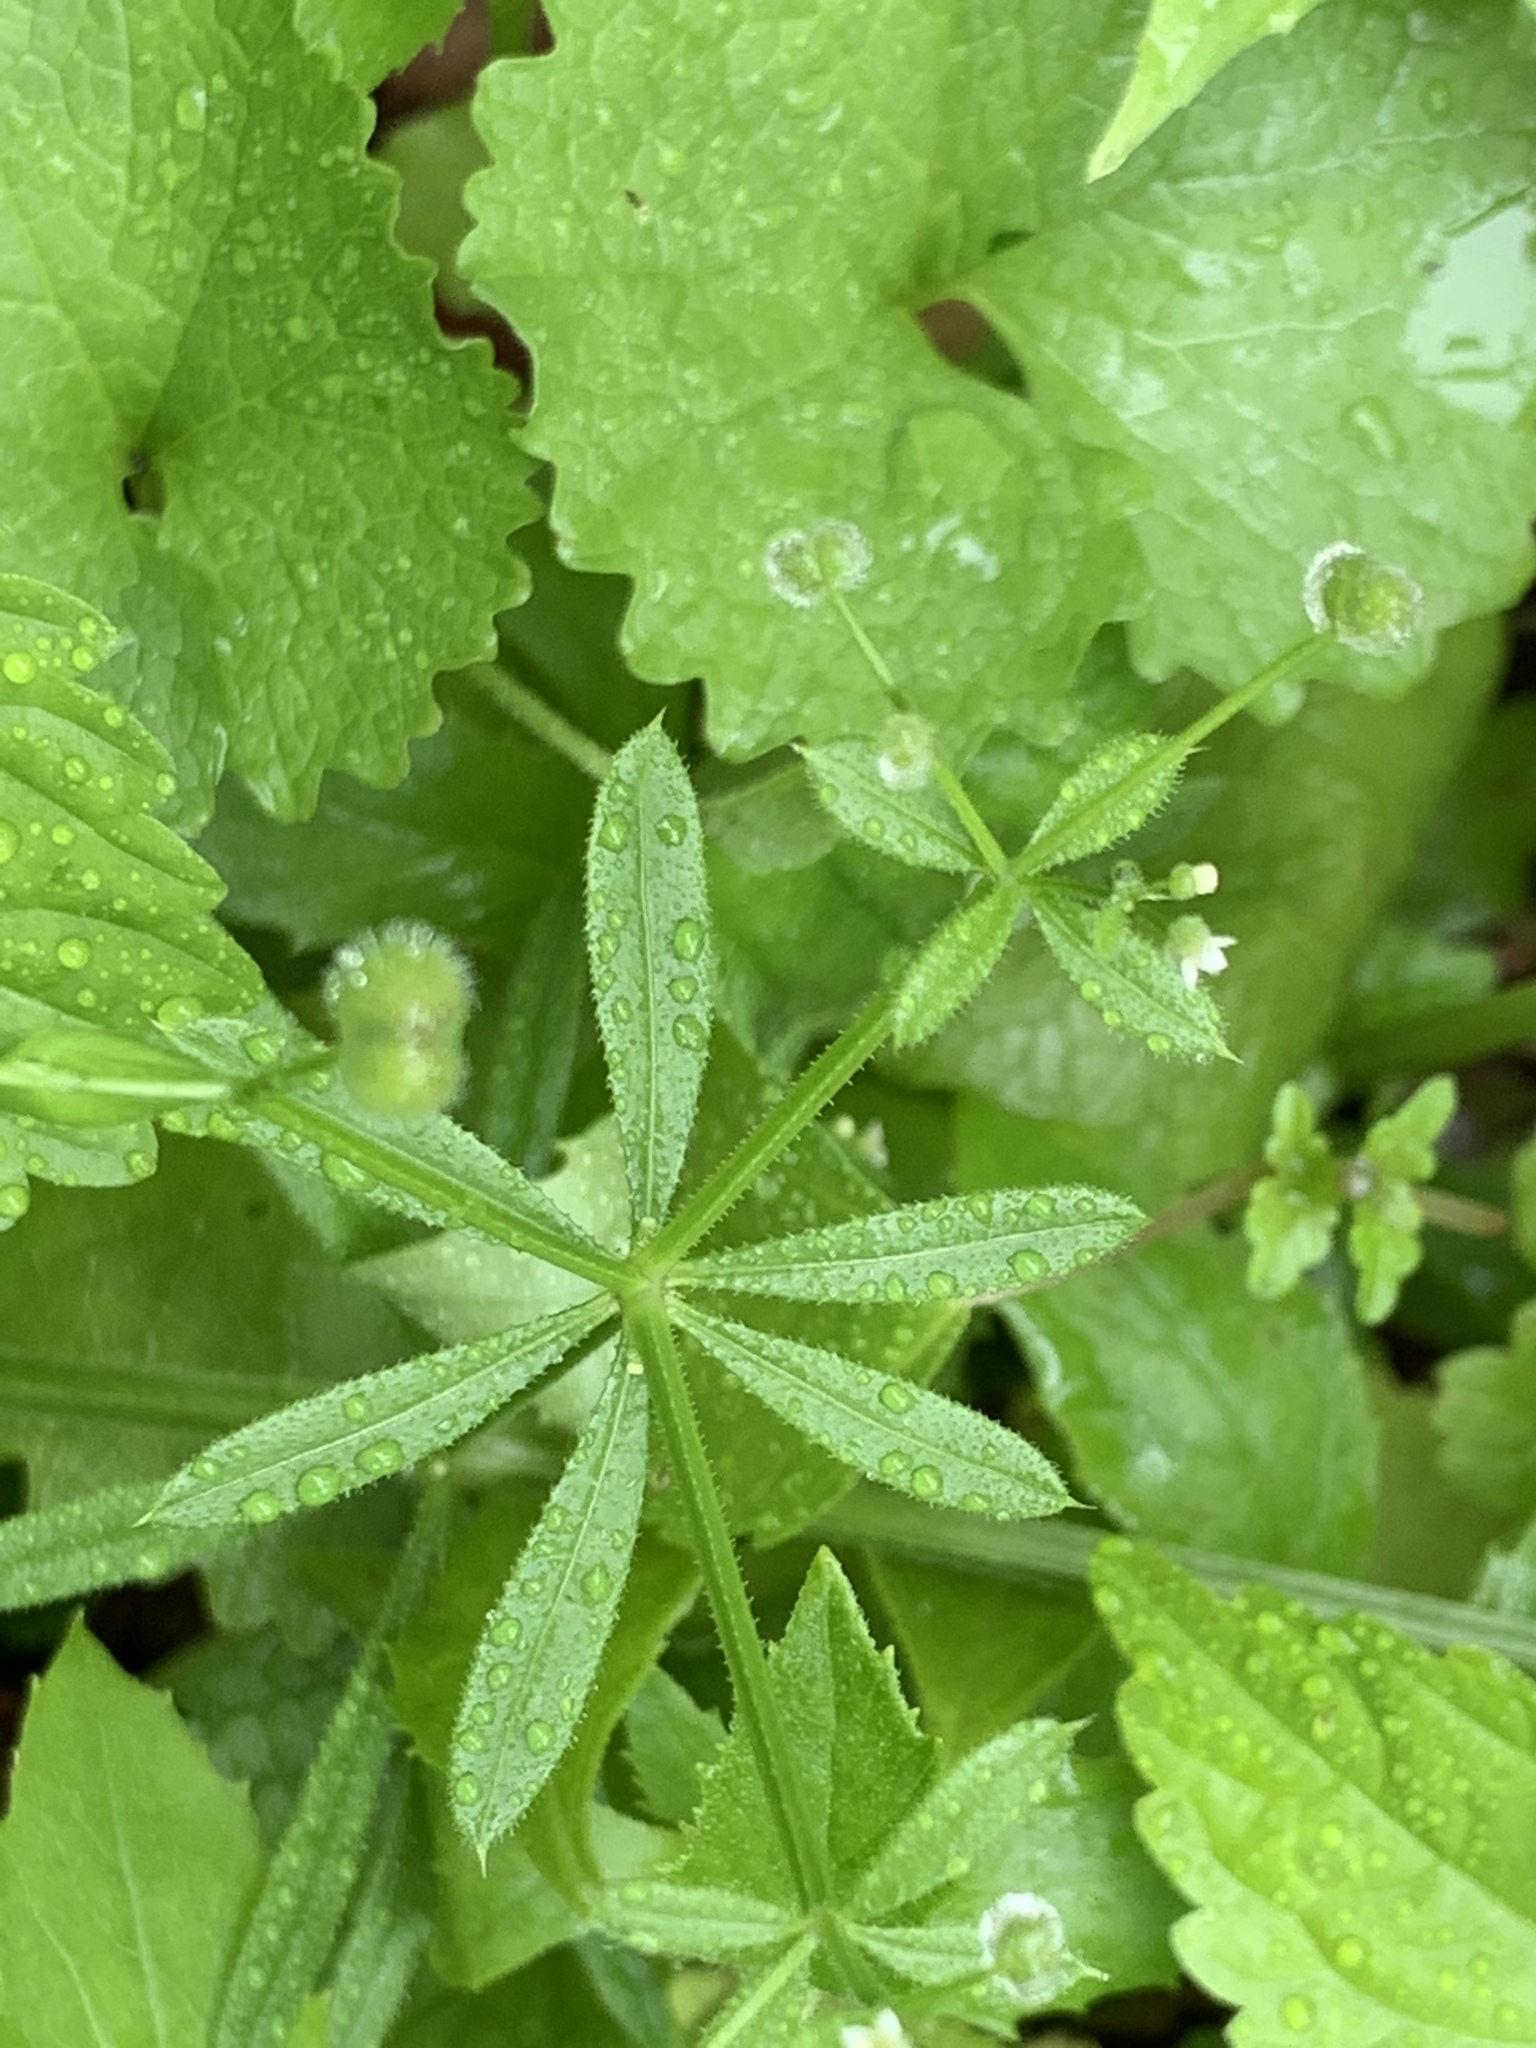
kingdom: Plantae
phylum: Tracheophyta
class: Magnoliopsida
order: Gentianales
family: Rubiaceae
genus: Galium
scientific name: Galium aparine
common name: Cleavers
